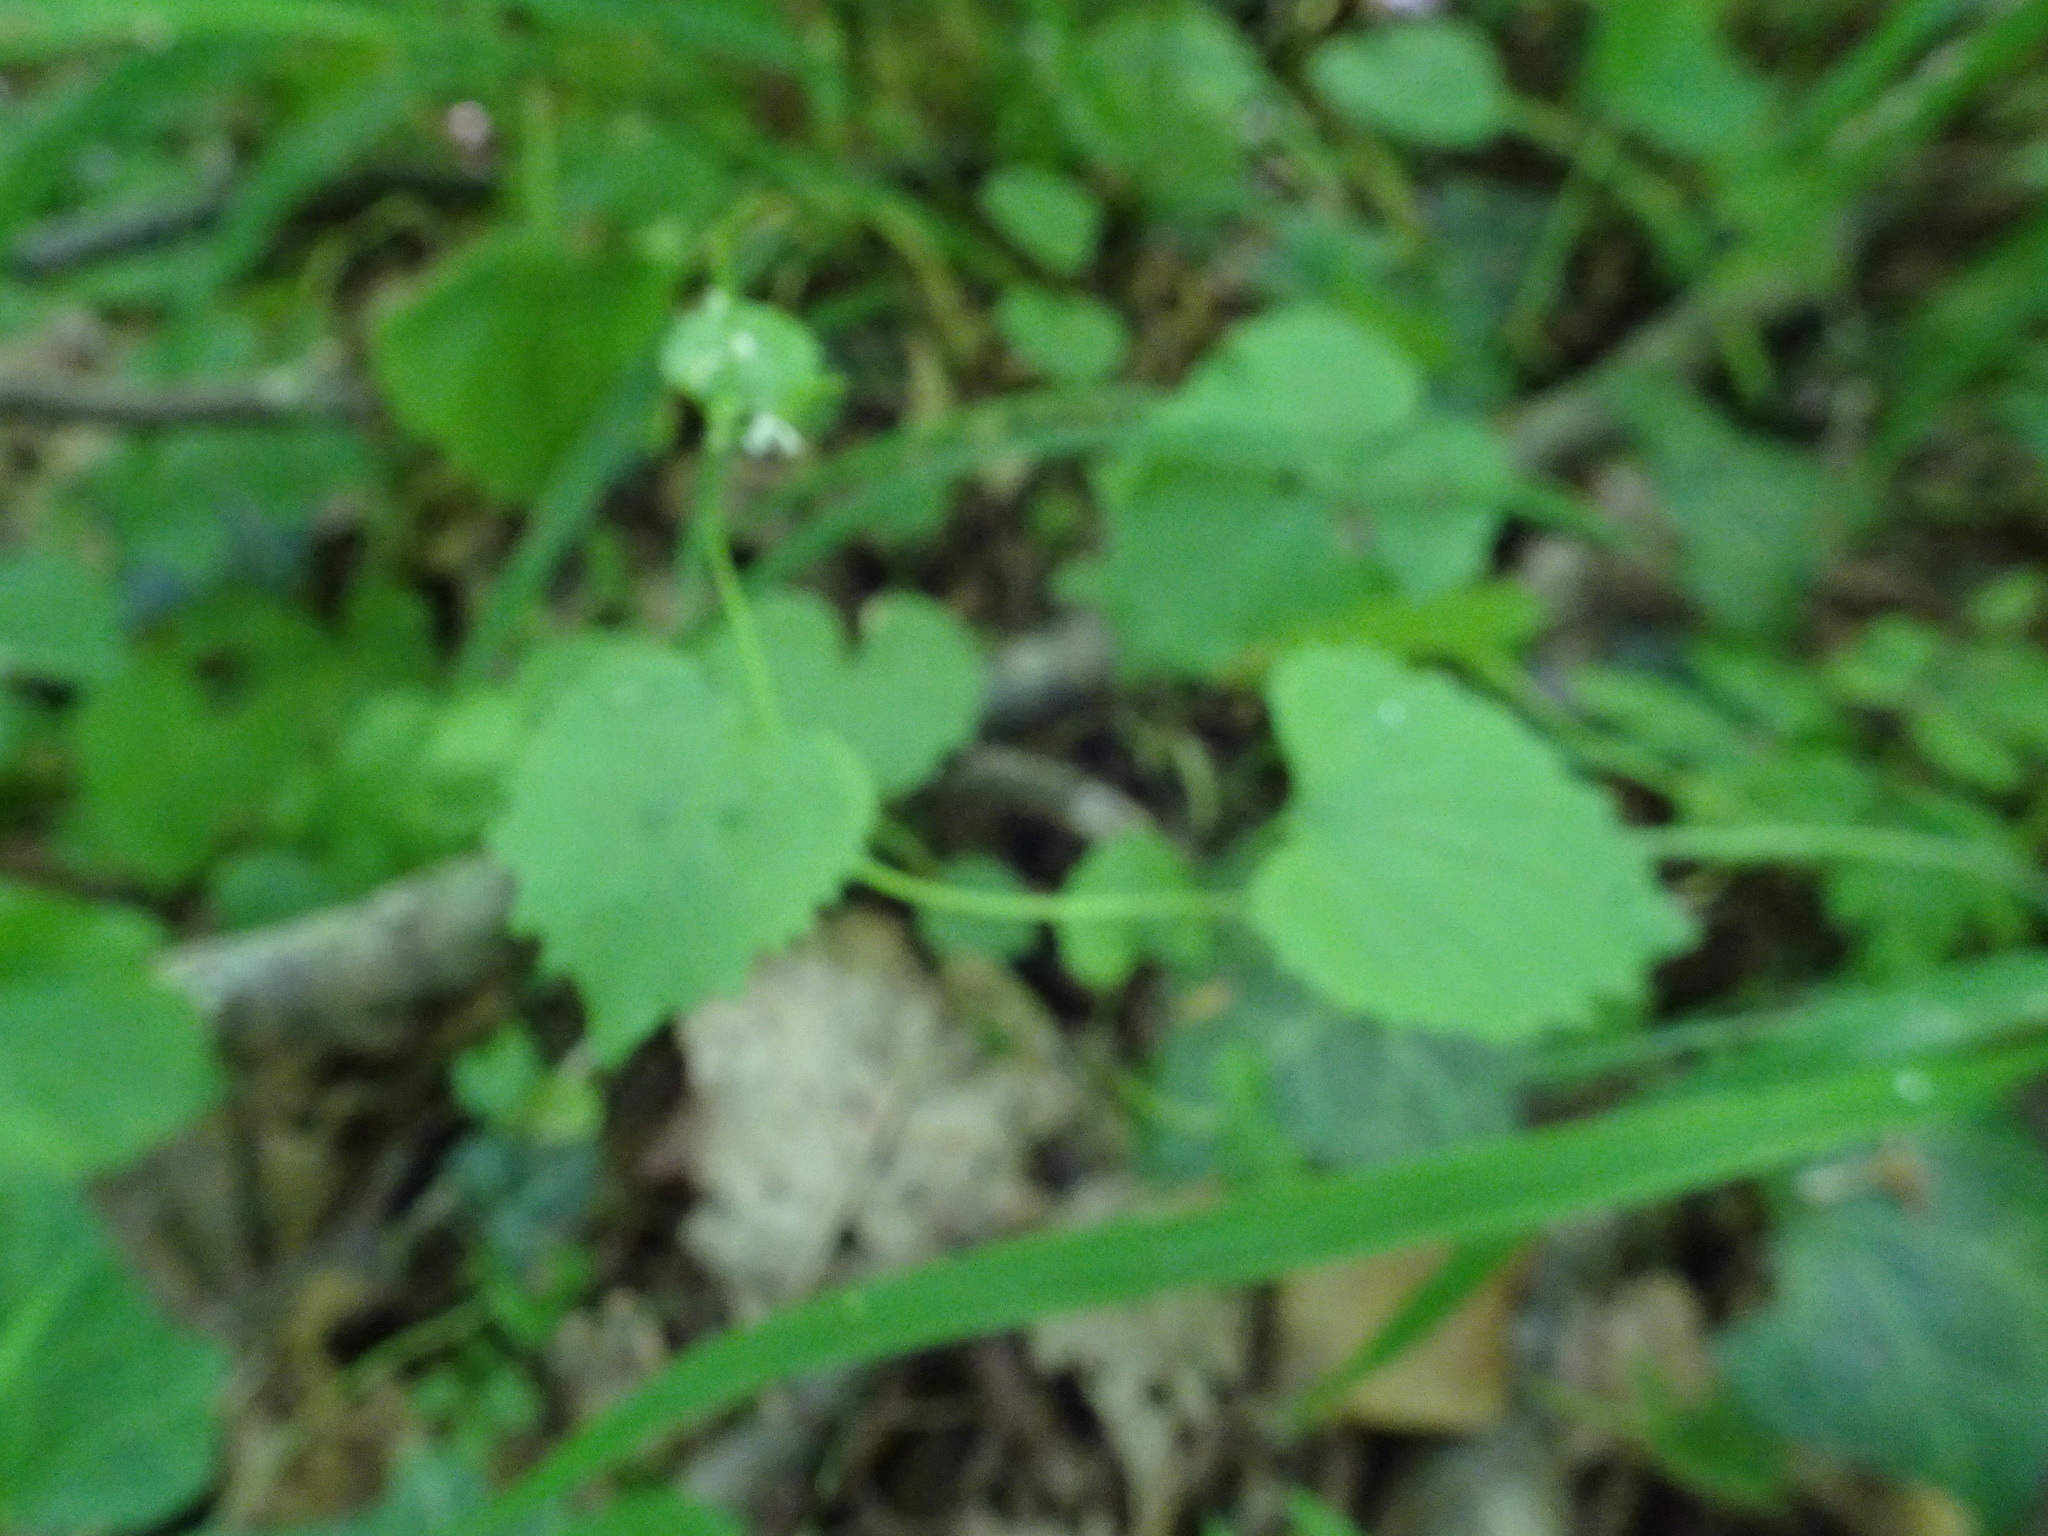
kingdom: Plantae
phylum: Tracheophyta
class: Magnoliopsida
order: Brassicales
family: Brassicaceae
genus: Alliaria
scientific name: Alliaria petiolata
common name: Garlic mustard
